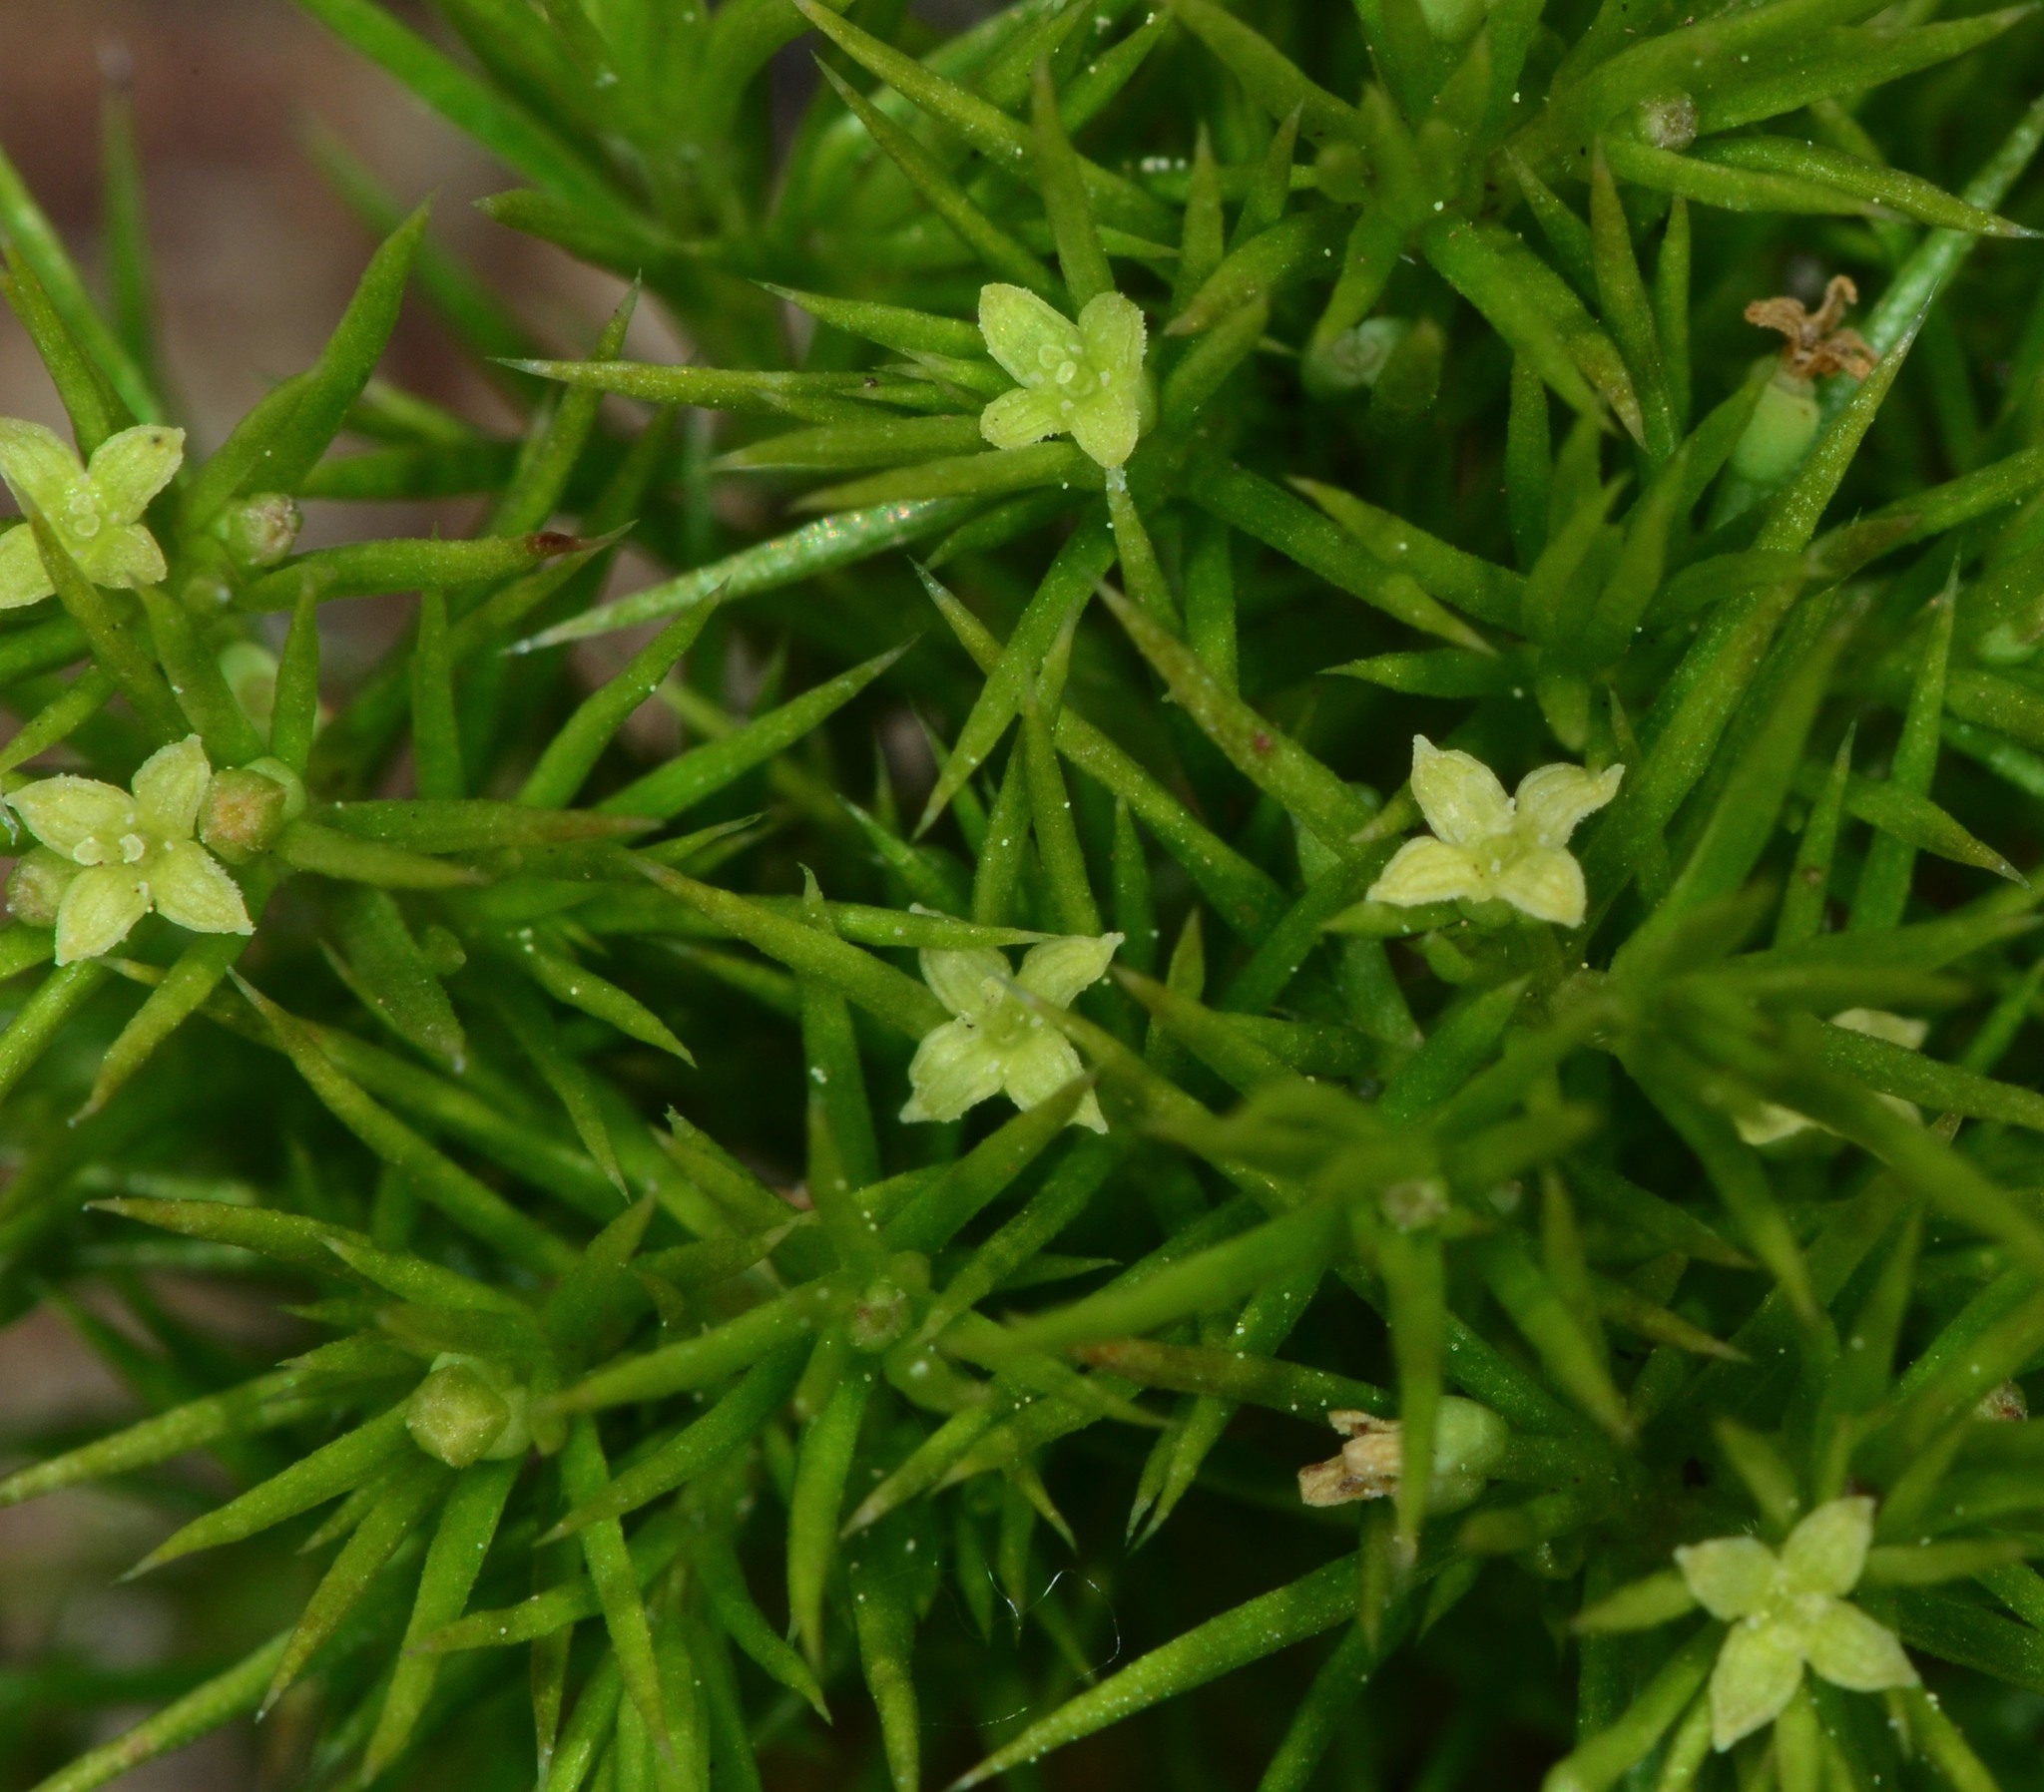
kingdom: Plantae
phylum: Tracheophyta
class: Magnoliopsida
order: Gentianales
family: Rubiaceae
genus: Galium
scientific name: Galium andrewsii
